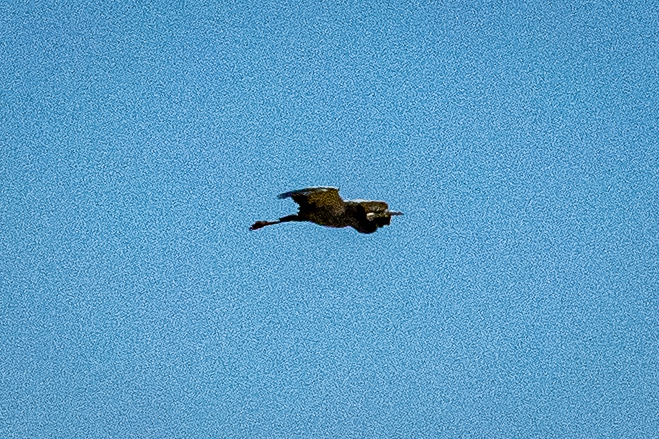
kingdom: Animalia
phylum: Chordata
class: Aves
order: Pelecaniformes
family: Ardeidae
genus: Ardea
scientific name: Ardea melanocephala
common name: Black-headed heron
